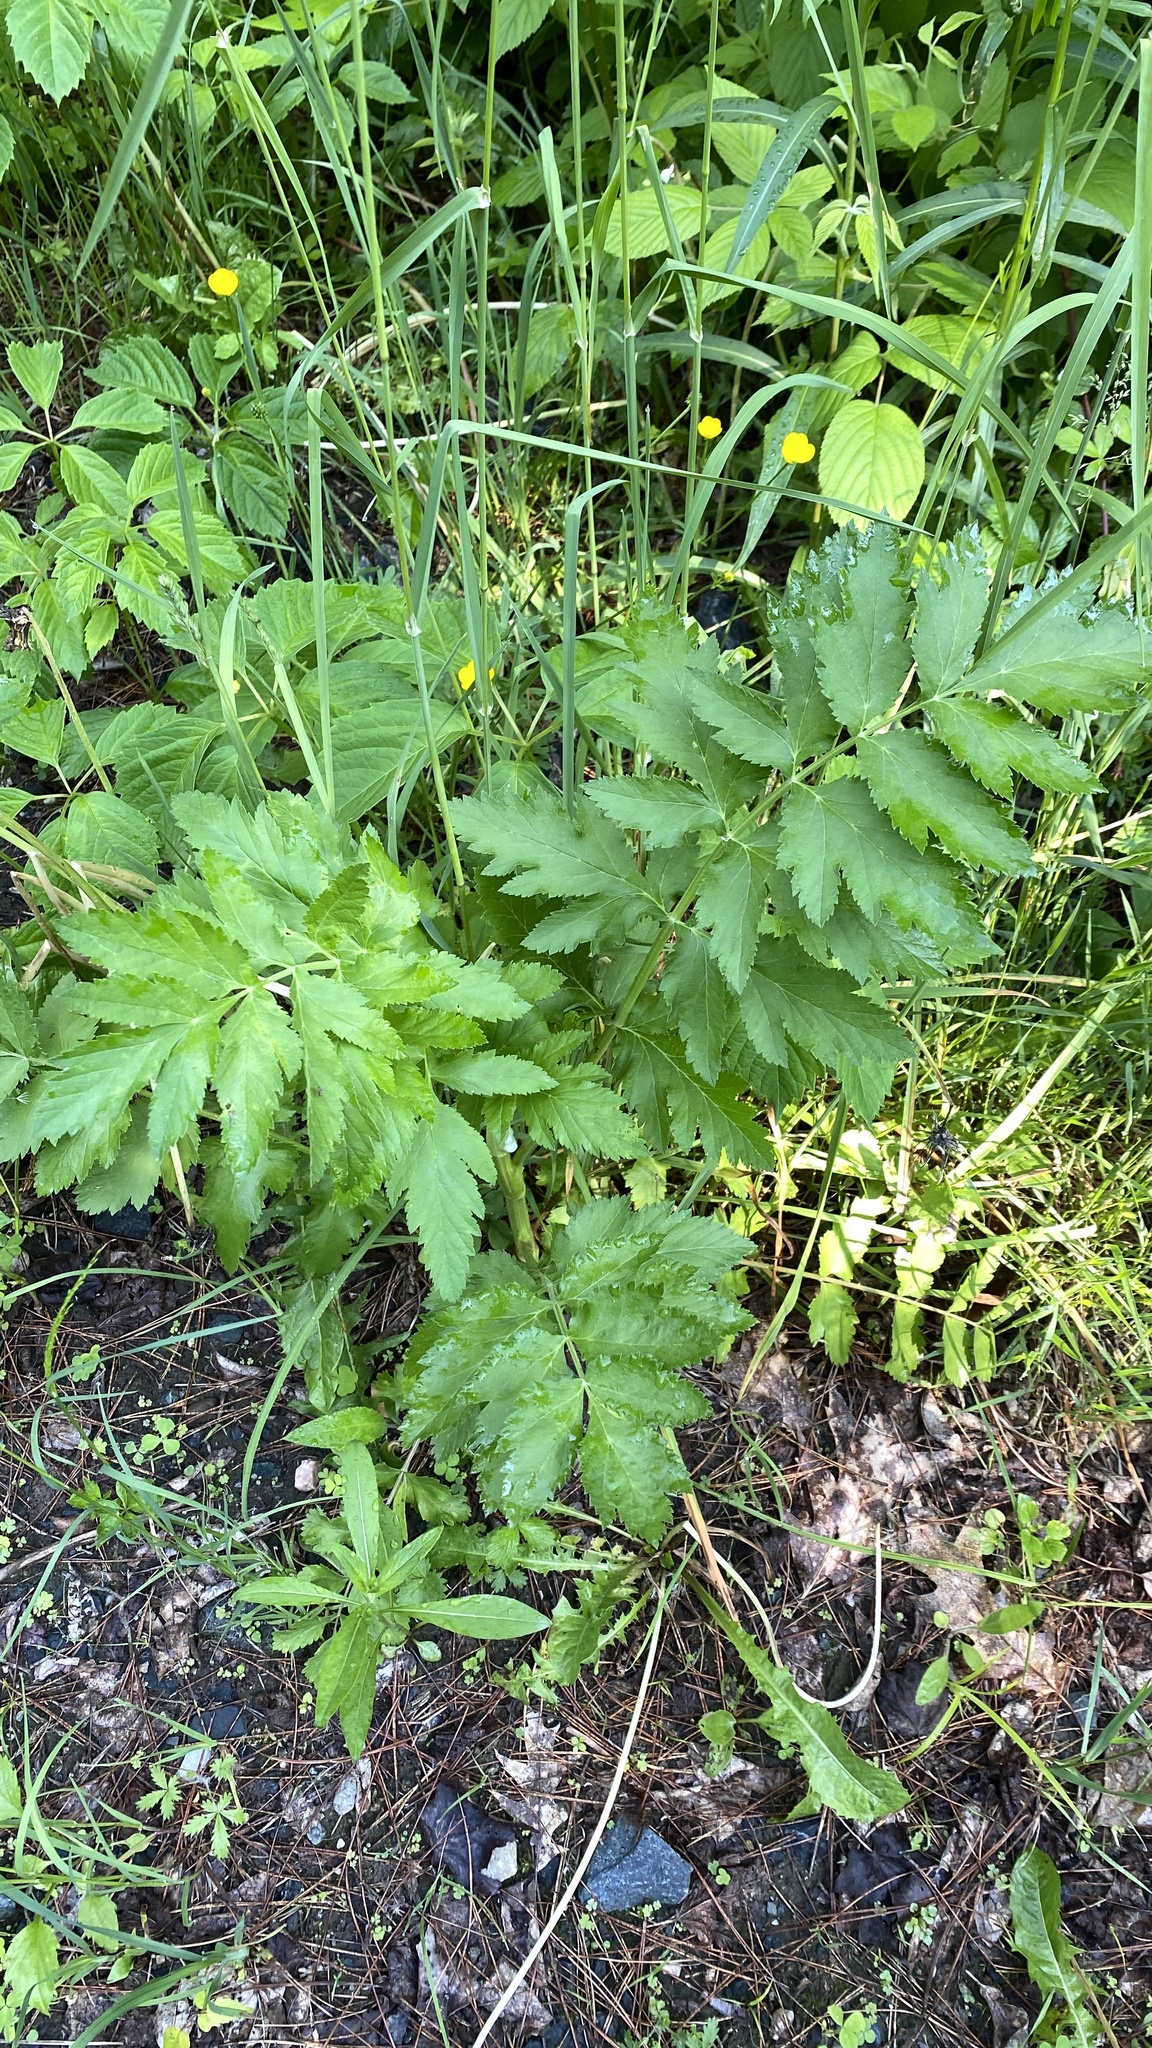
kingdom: Plantae
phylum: Tracheophyta
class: Magnoliopsida
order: Apiales
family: Apiaceae
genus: Pastinaca
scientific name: Pastinaca sativa
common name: Wild parsnip
